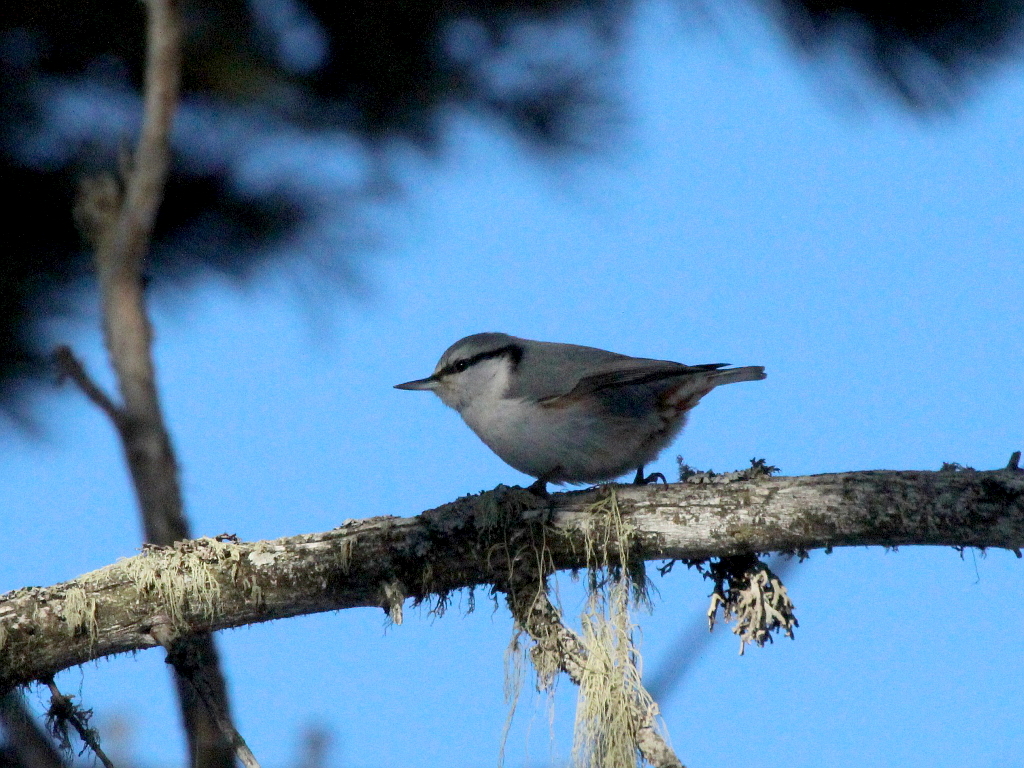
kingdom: Animalia
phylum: Chordata
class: Aves
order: Passeriformes
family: Sittidae
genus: Sitta
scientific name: Sitta europaea
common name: Eurasian nuthatch
